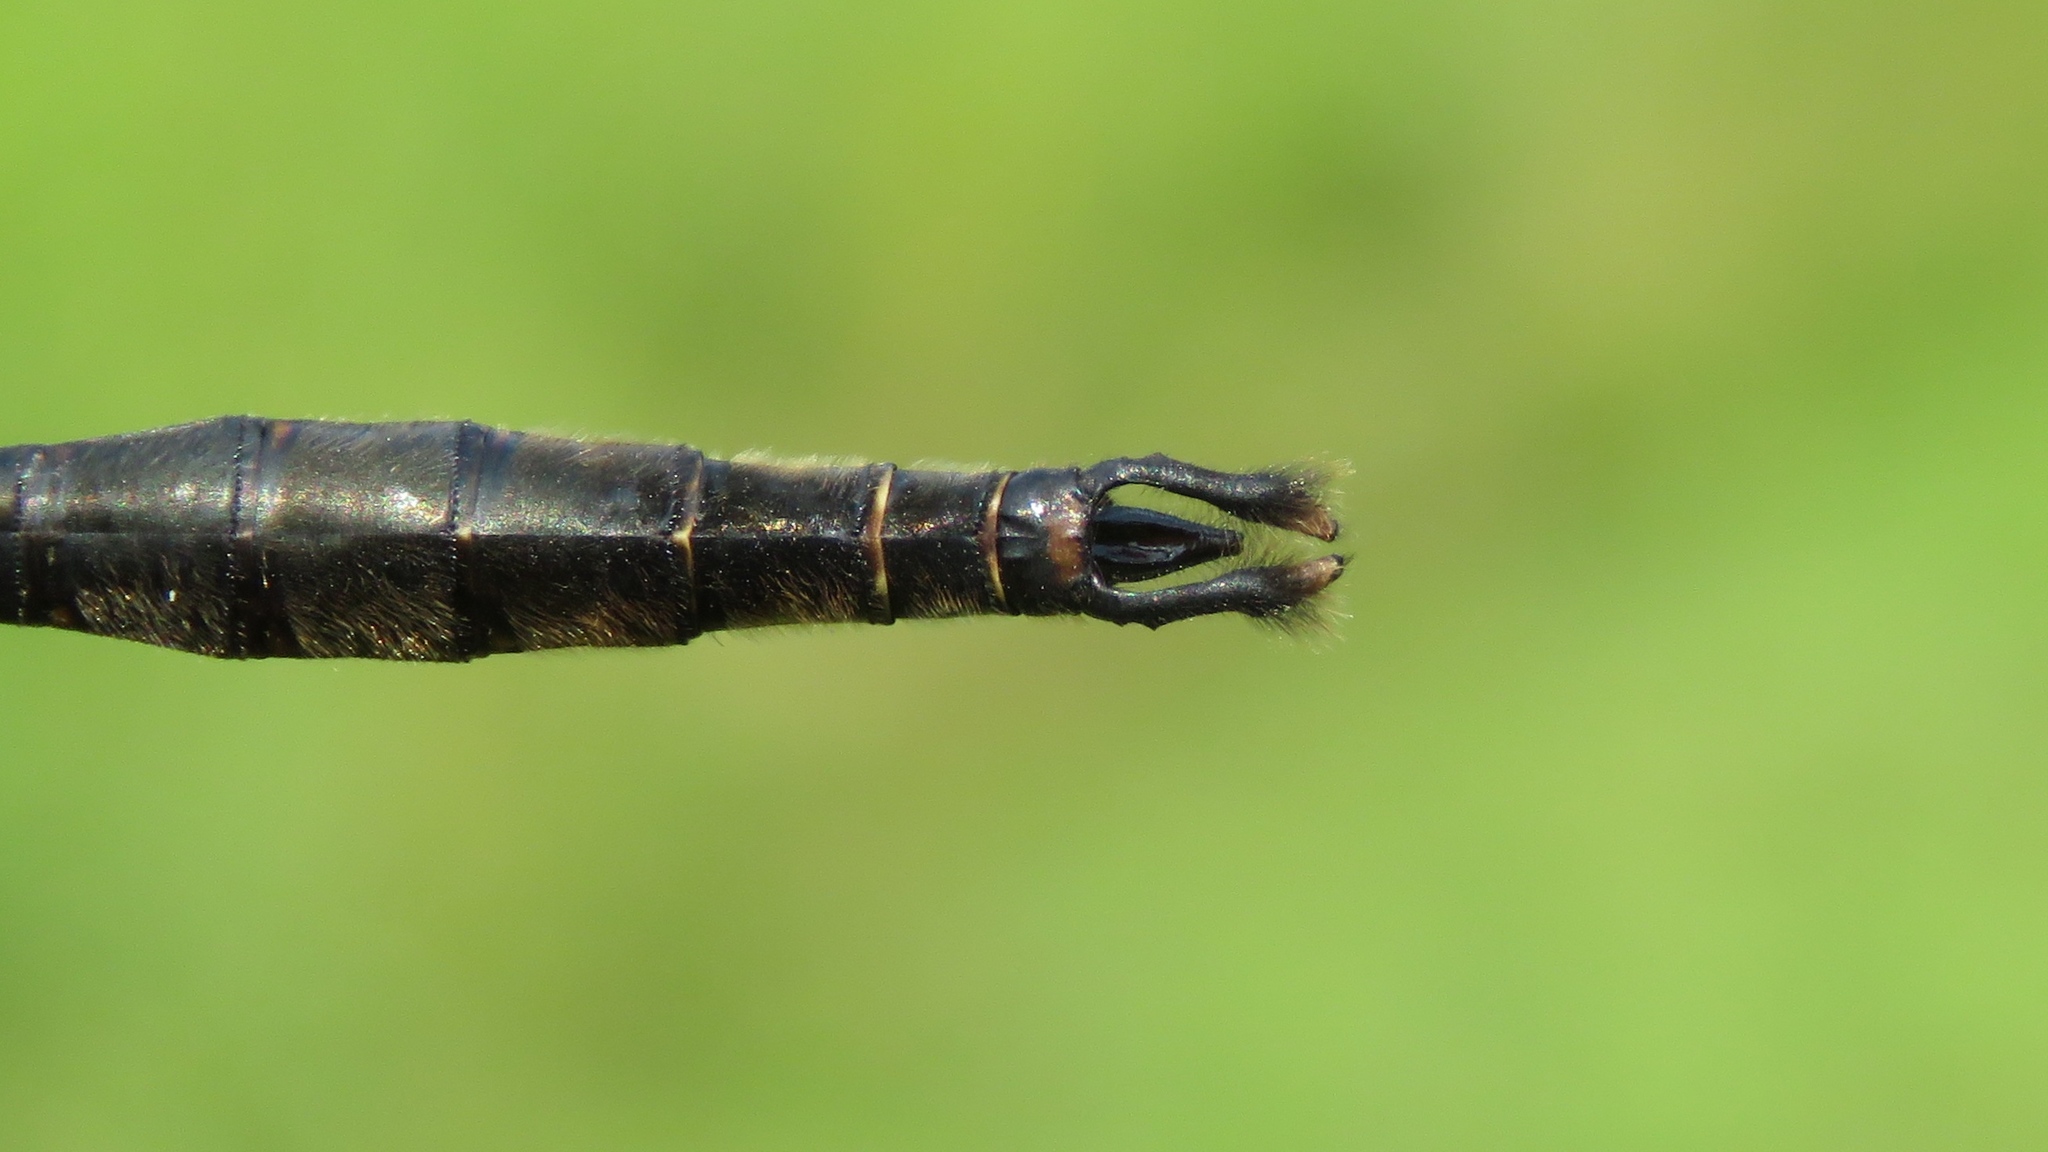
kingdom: Animalia
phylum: Arthropoda
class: Insecta
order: Odonata
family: Corduliidae
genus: Somatochlora
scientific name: Somatochlora walshii
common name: Brush-tipped emerald
